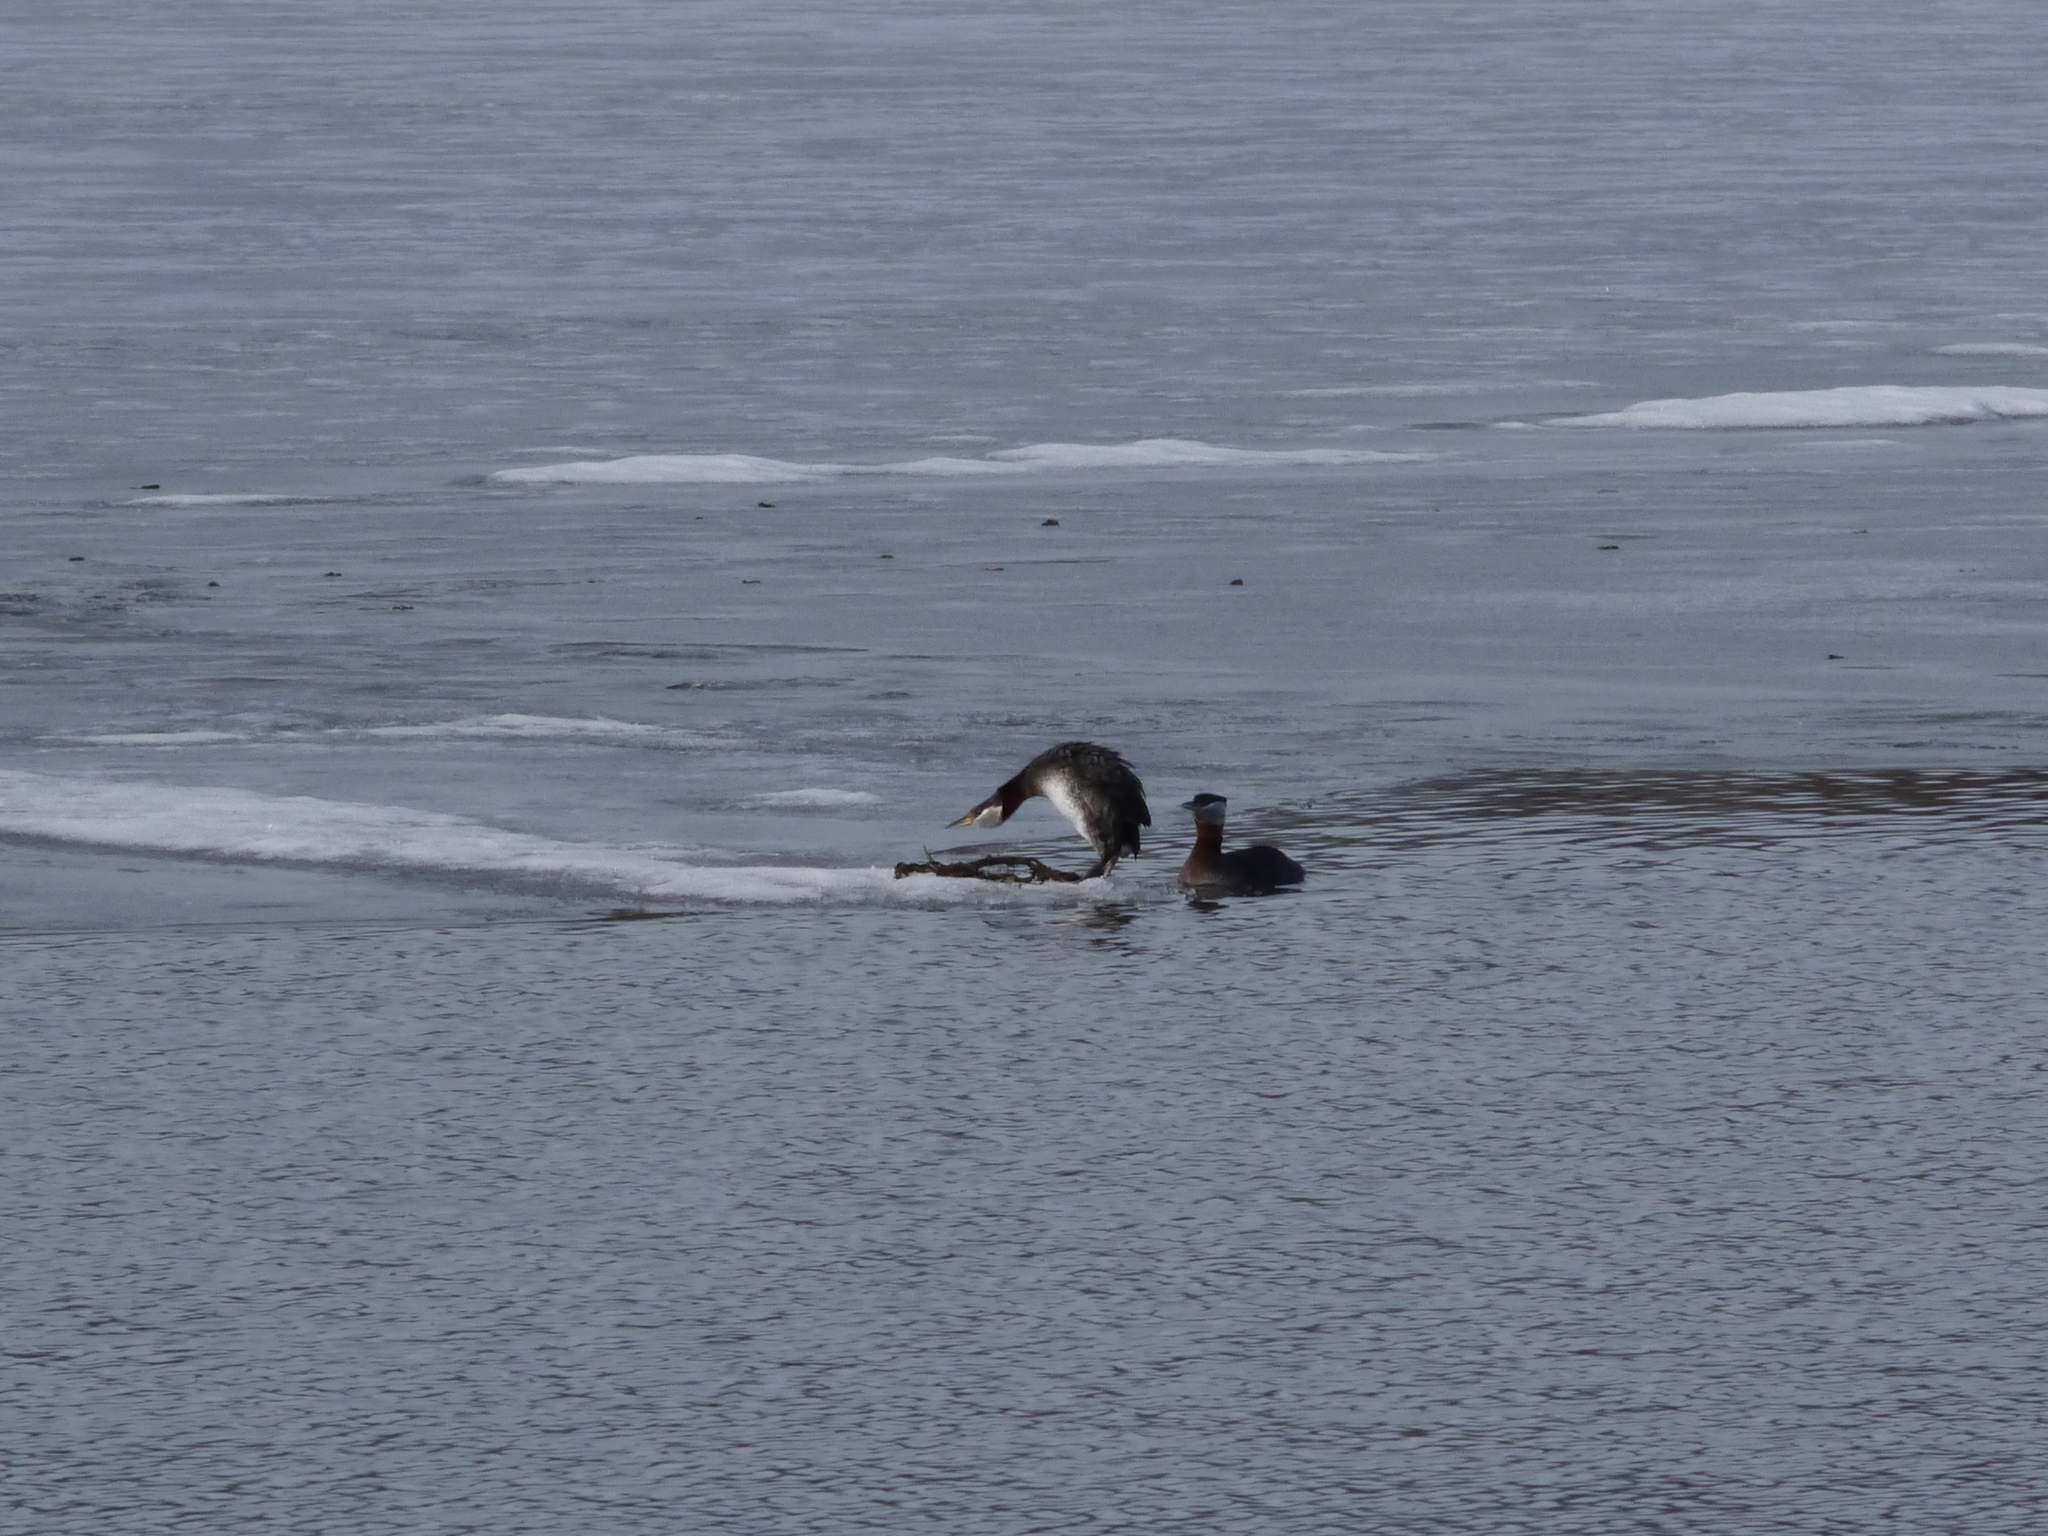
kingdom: Animalia
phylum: Chordata
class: Aves
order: Podicipediformes
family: Podicipedidae
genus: Podiceps
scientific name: Podiceps grisegena
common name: Red-necked grebe
